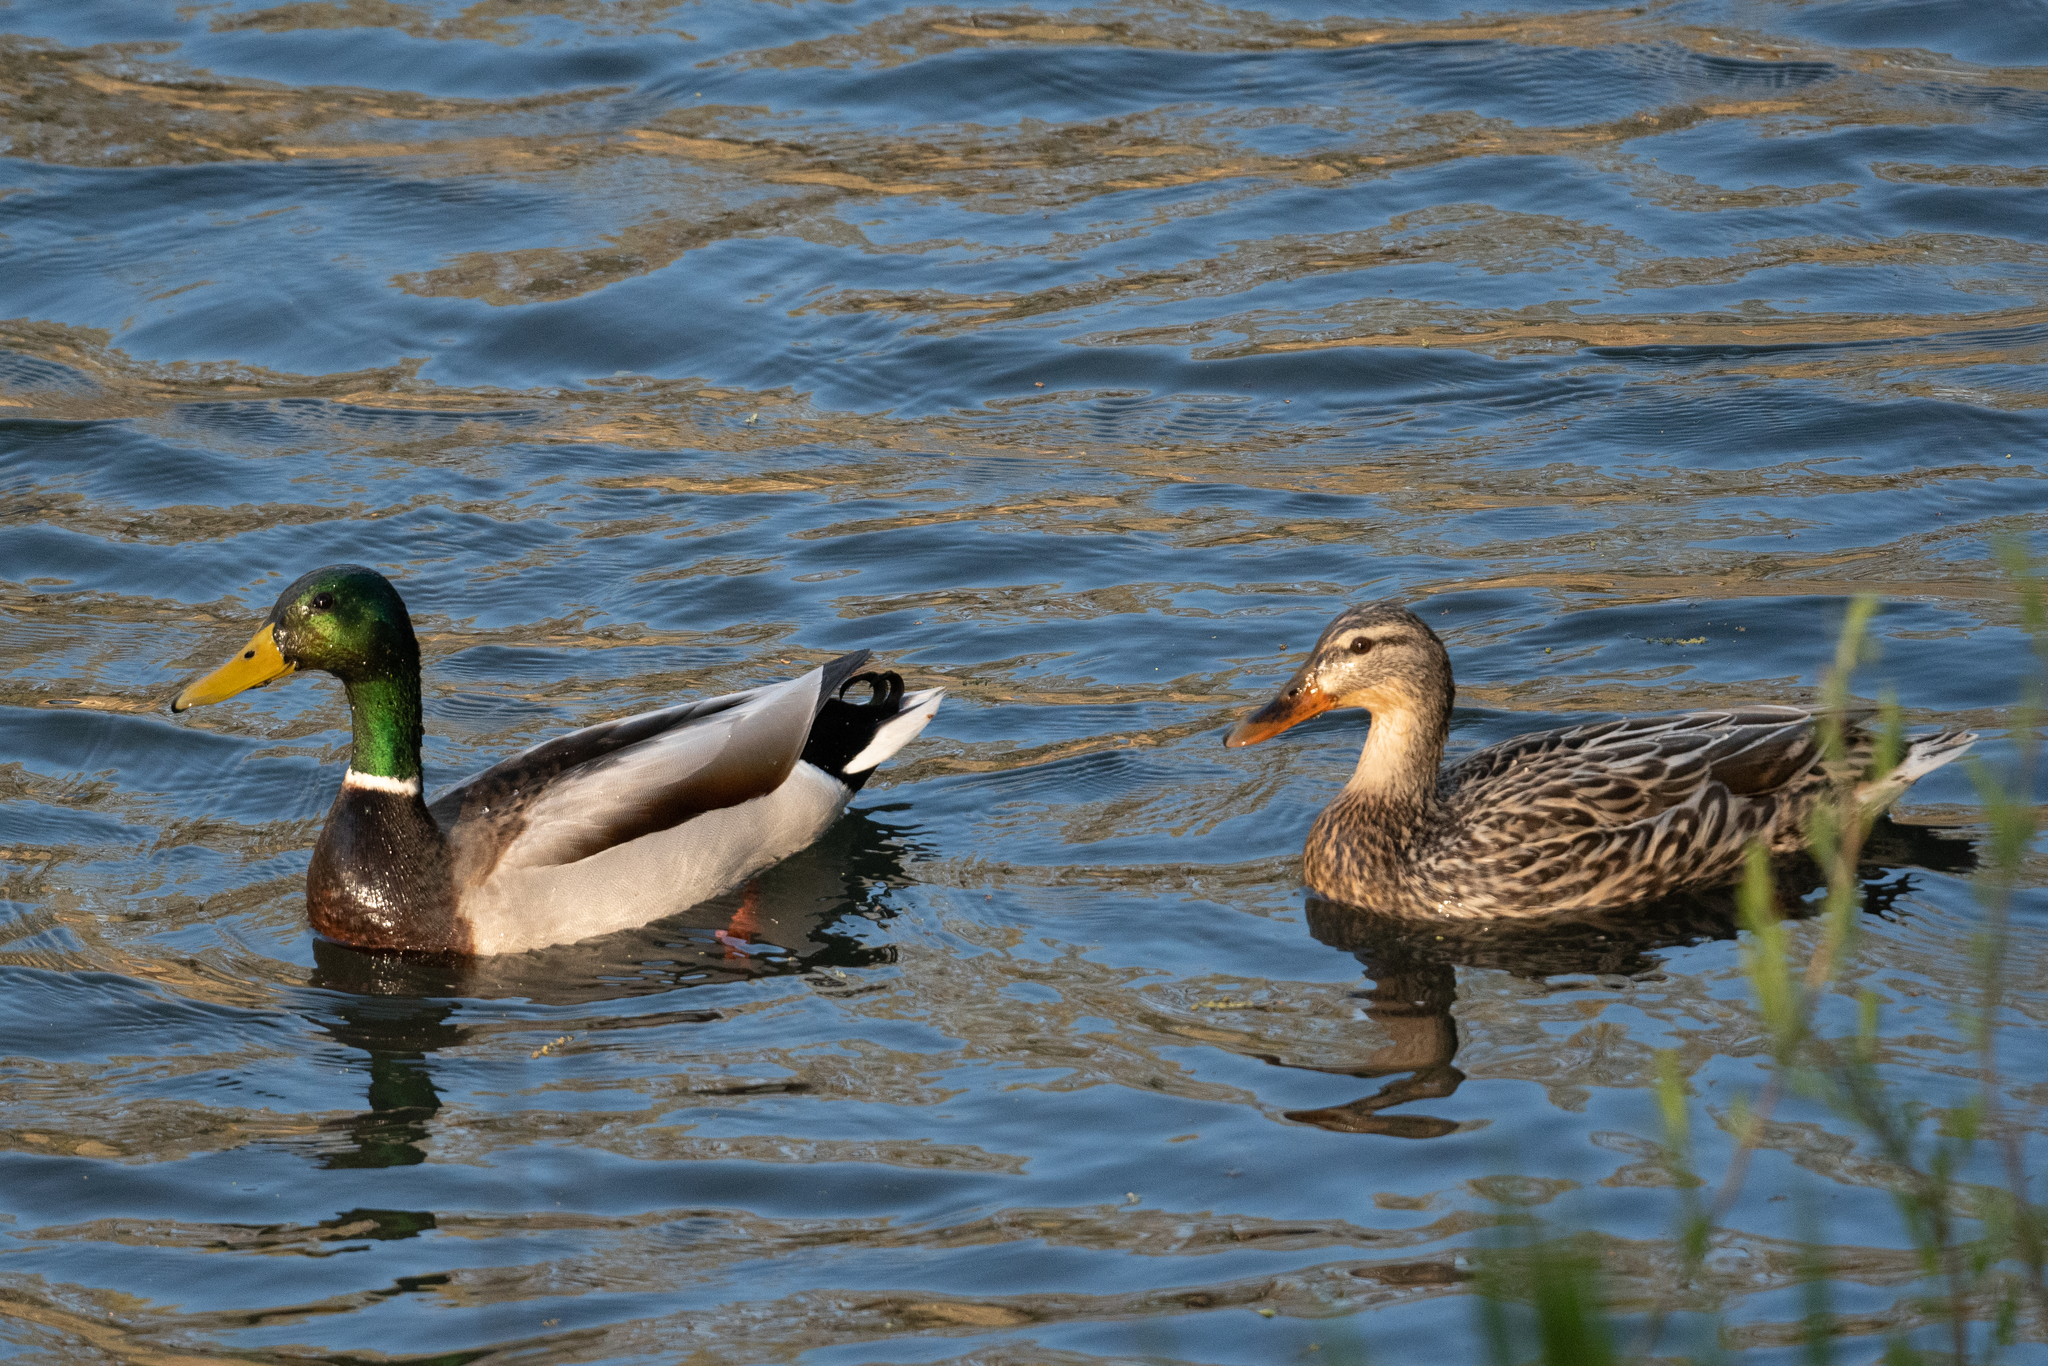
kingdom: Animalia
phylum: Chordata
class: Aves
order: Anseriformes
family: Anatidae
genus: Anas
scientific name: Anas platyrhynchos
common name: Mallard
